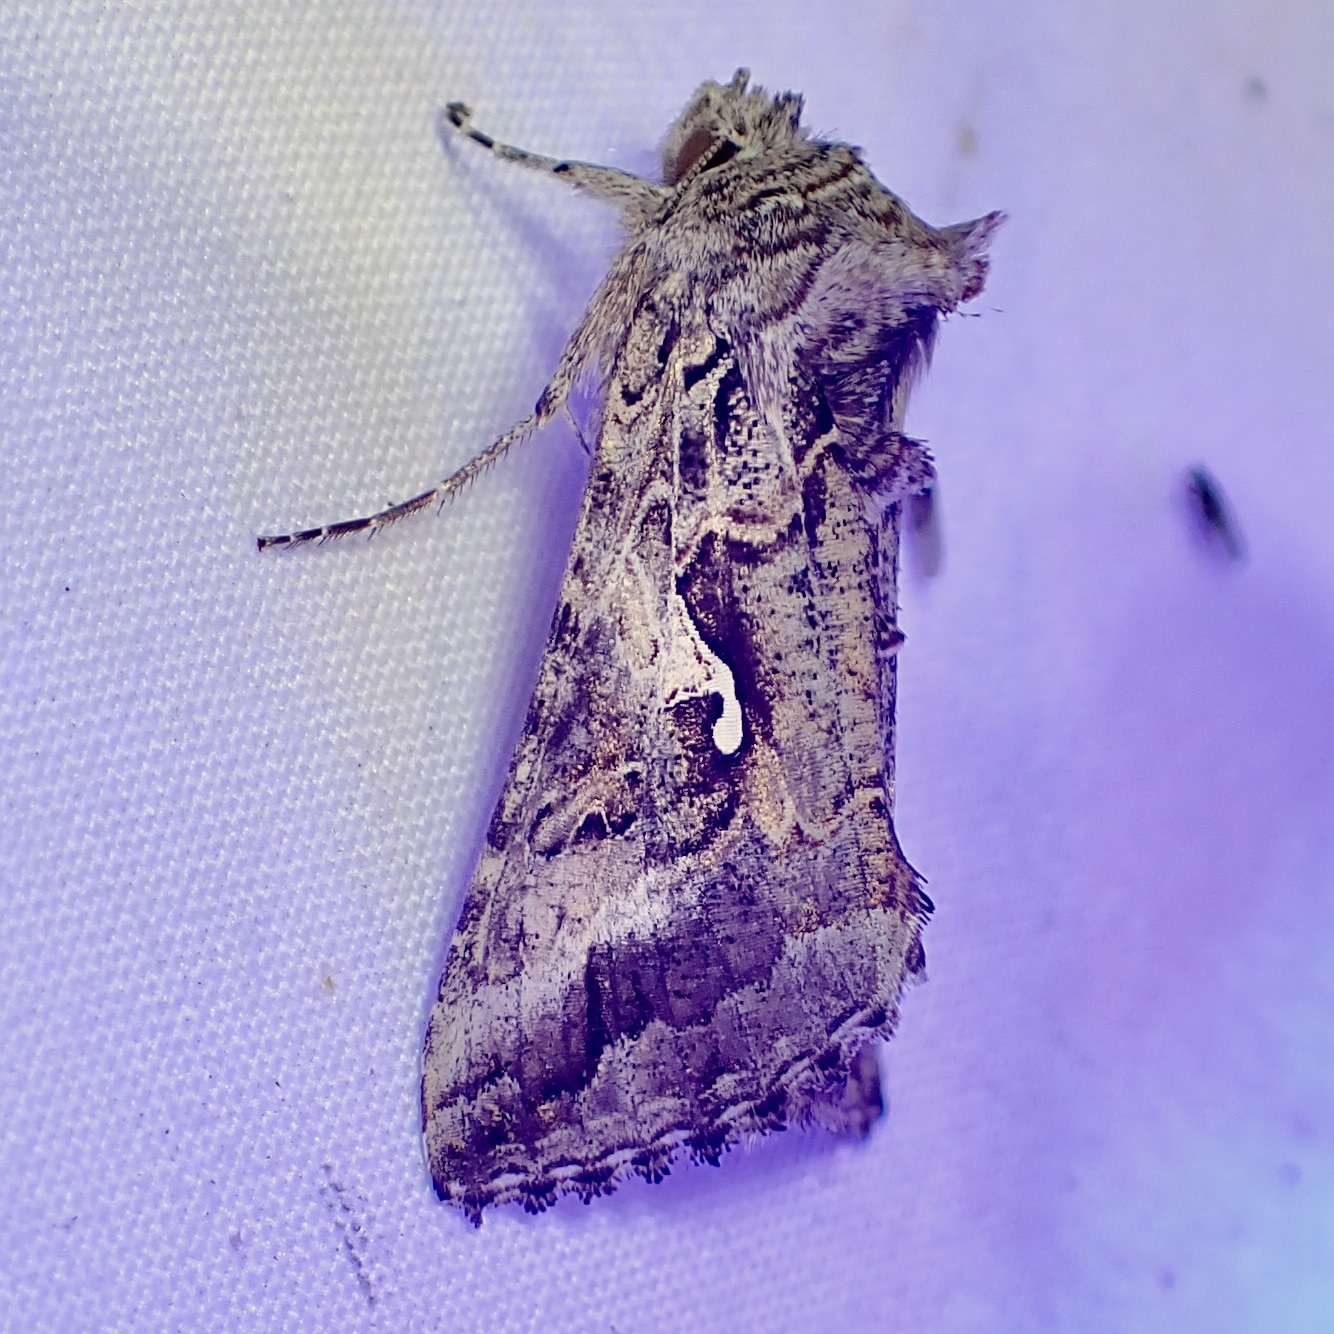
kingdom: Animalia
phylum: Arthropoda
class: Insecta
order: Lepidoptera
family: Noctuidae
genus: Autographa
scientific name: Autographa californica
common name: Alfalfa looper
